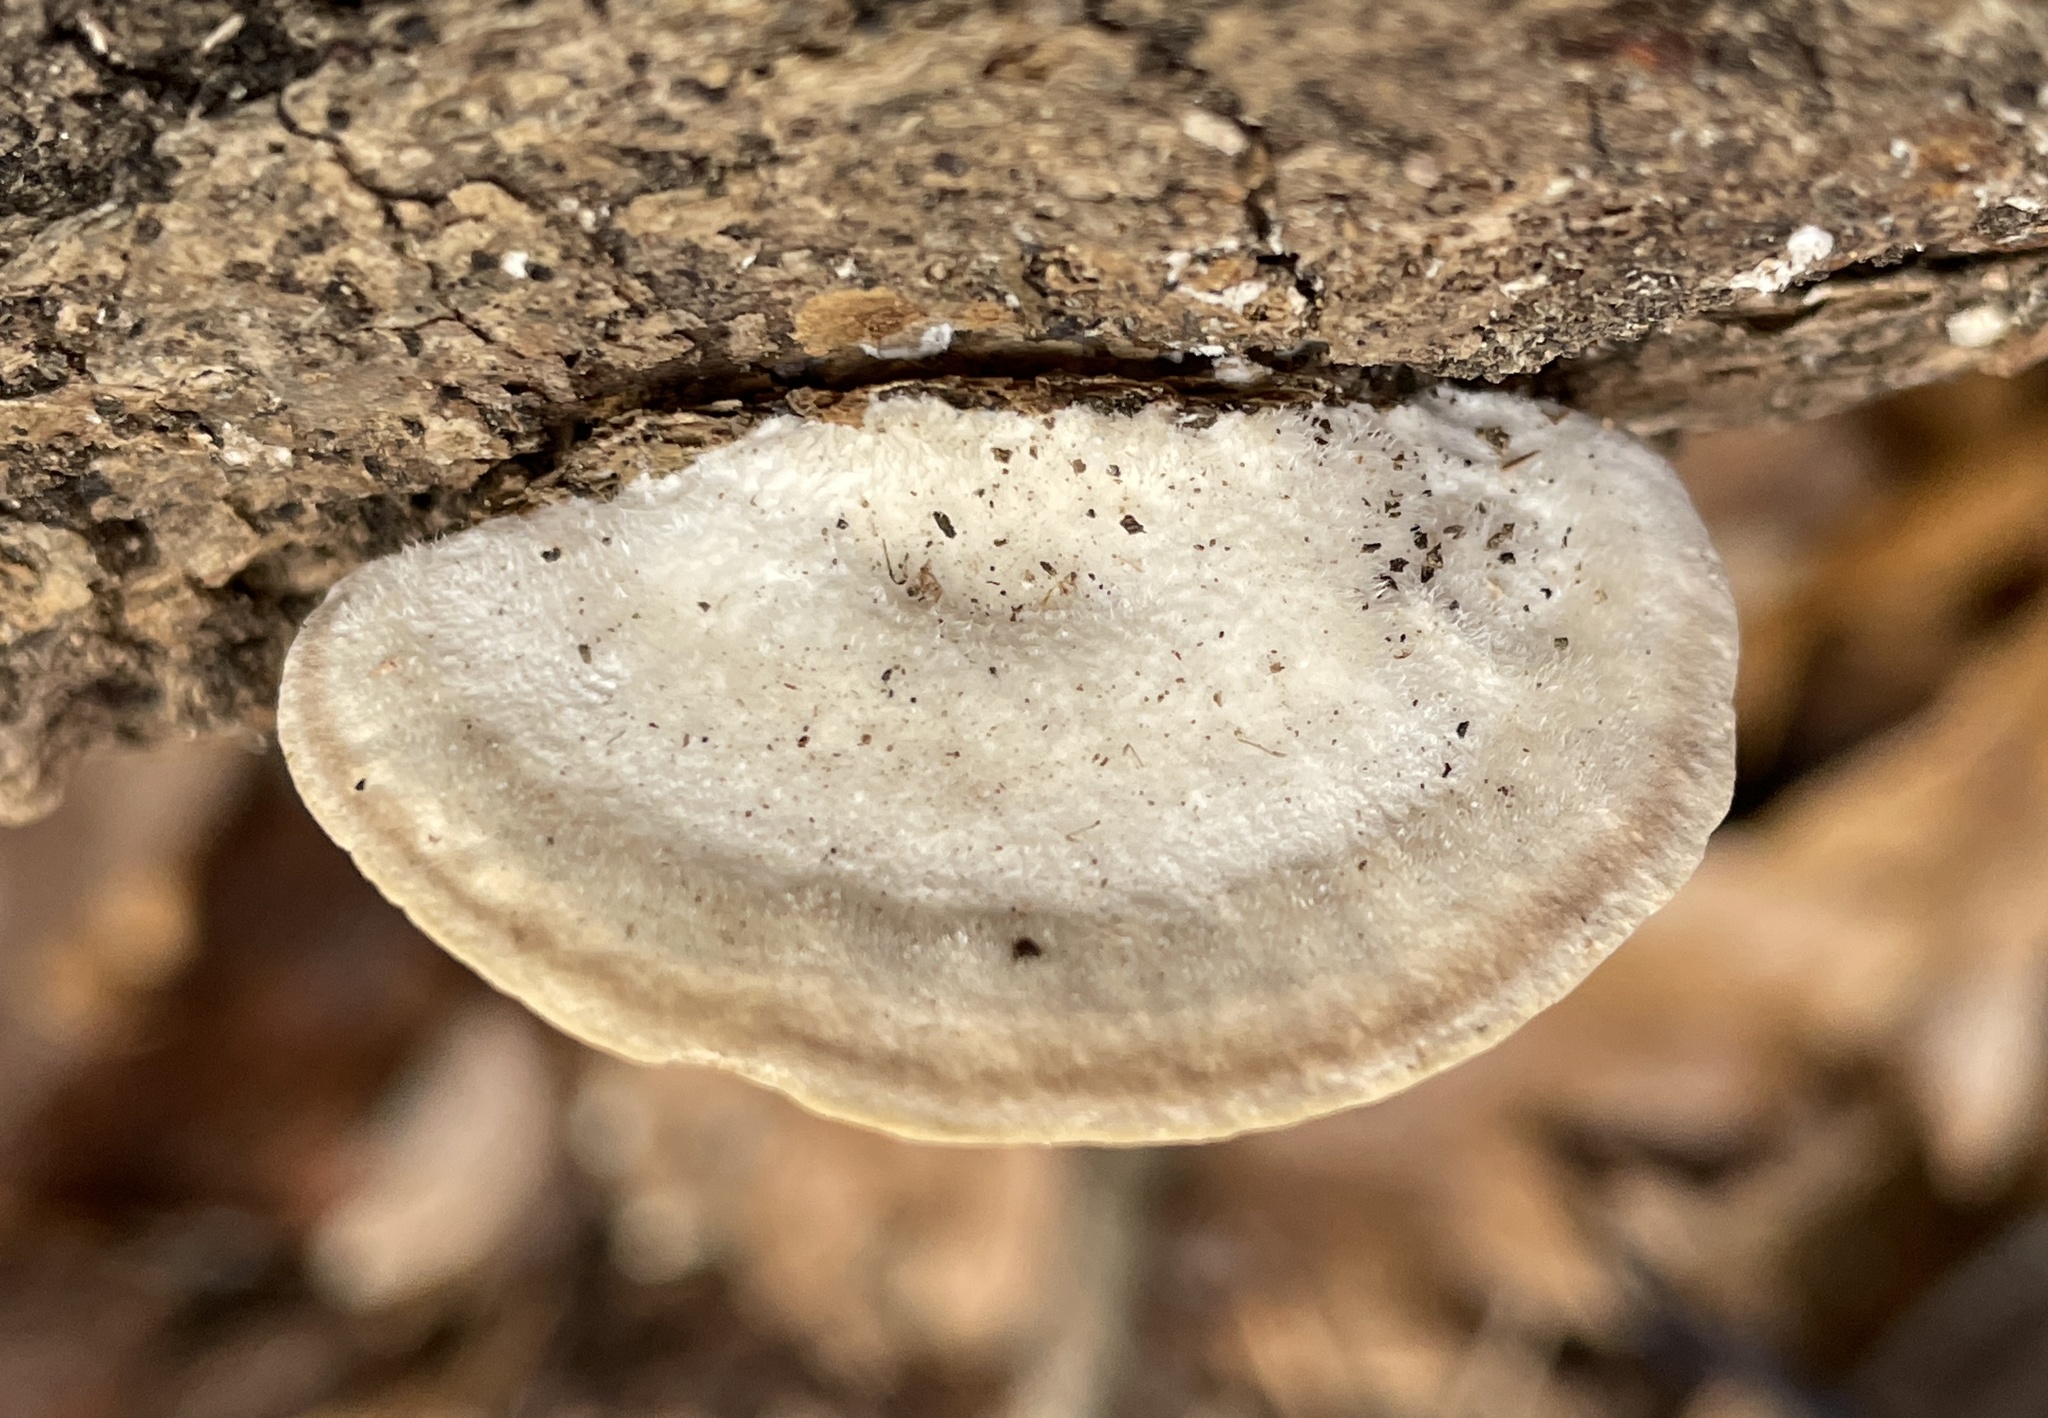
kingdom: Fungi
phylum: Basidiomycota
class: Agaricomycetes
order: Polyporales
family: Polyporaceae
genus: Trametes
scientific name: Trametes gibbosa
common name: Lumpy bracket
